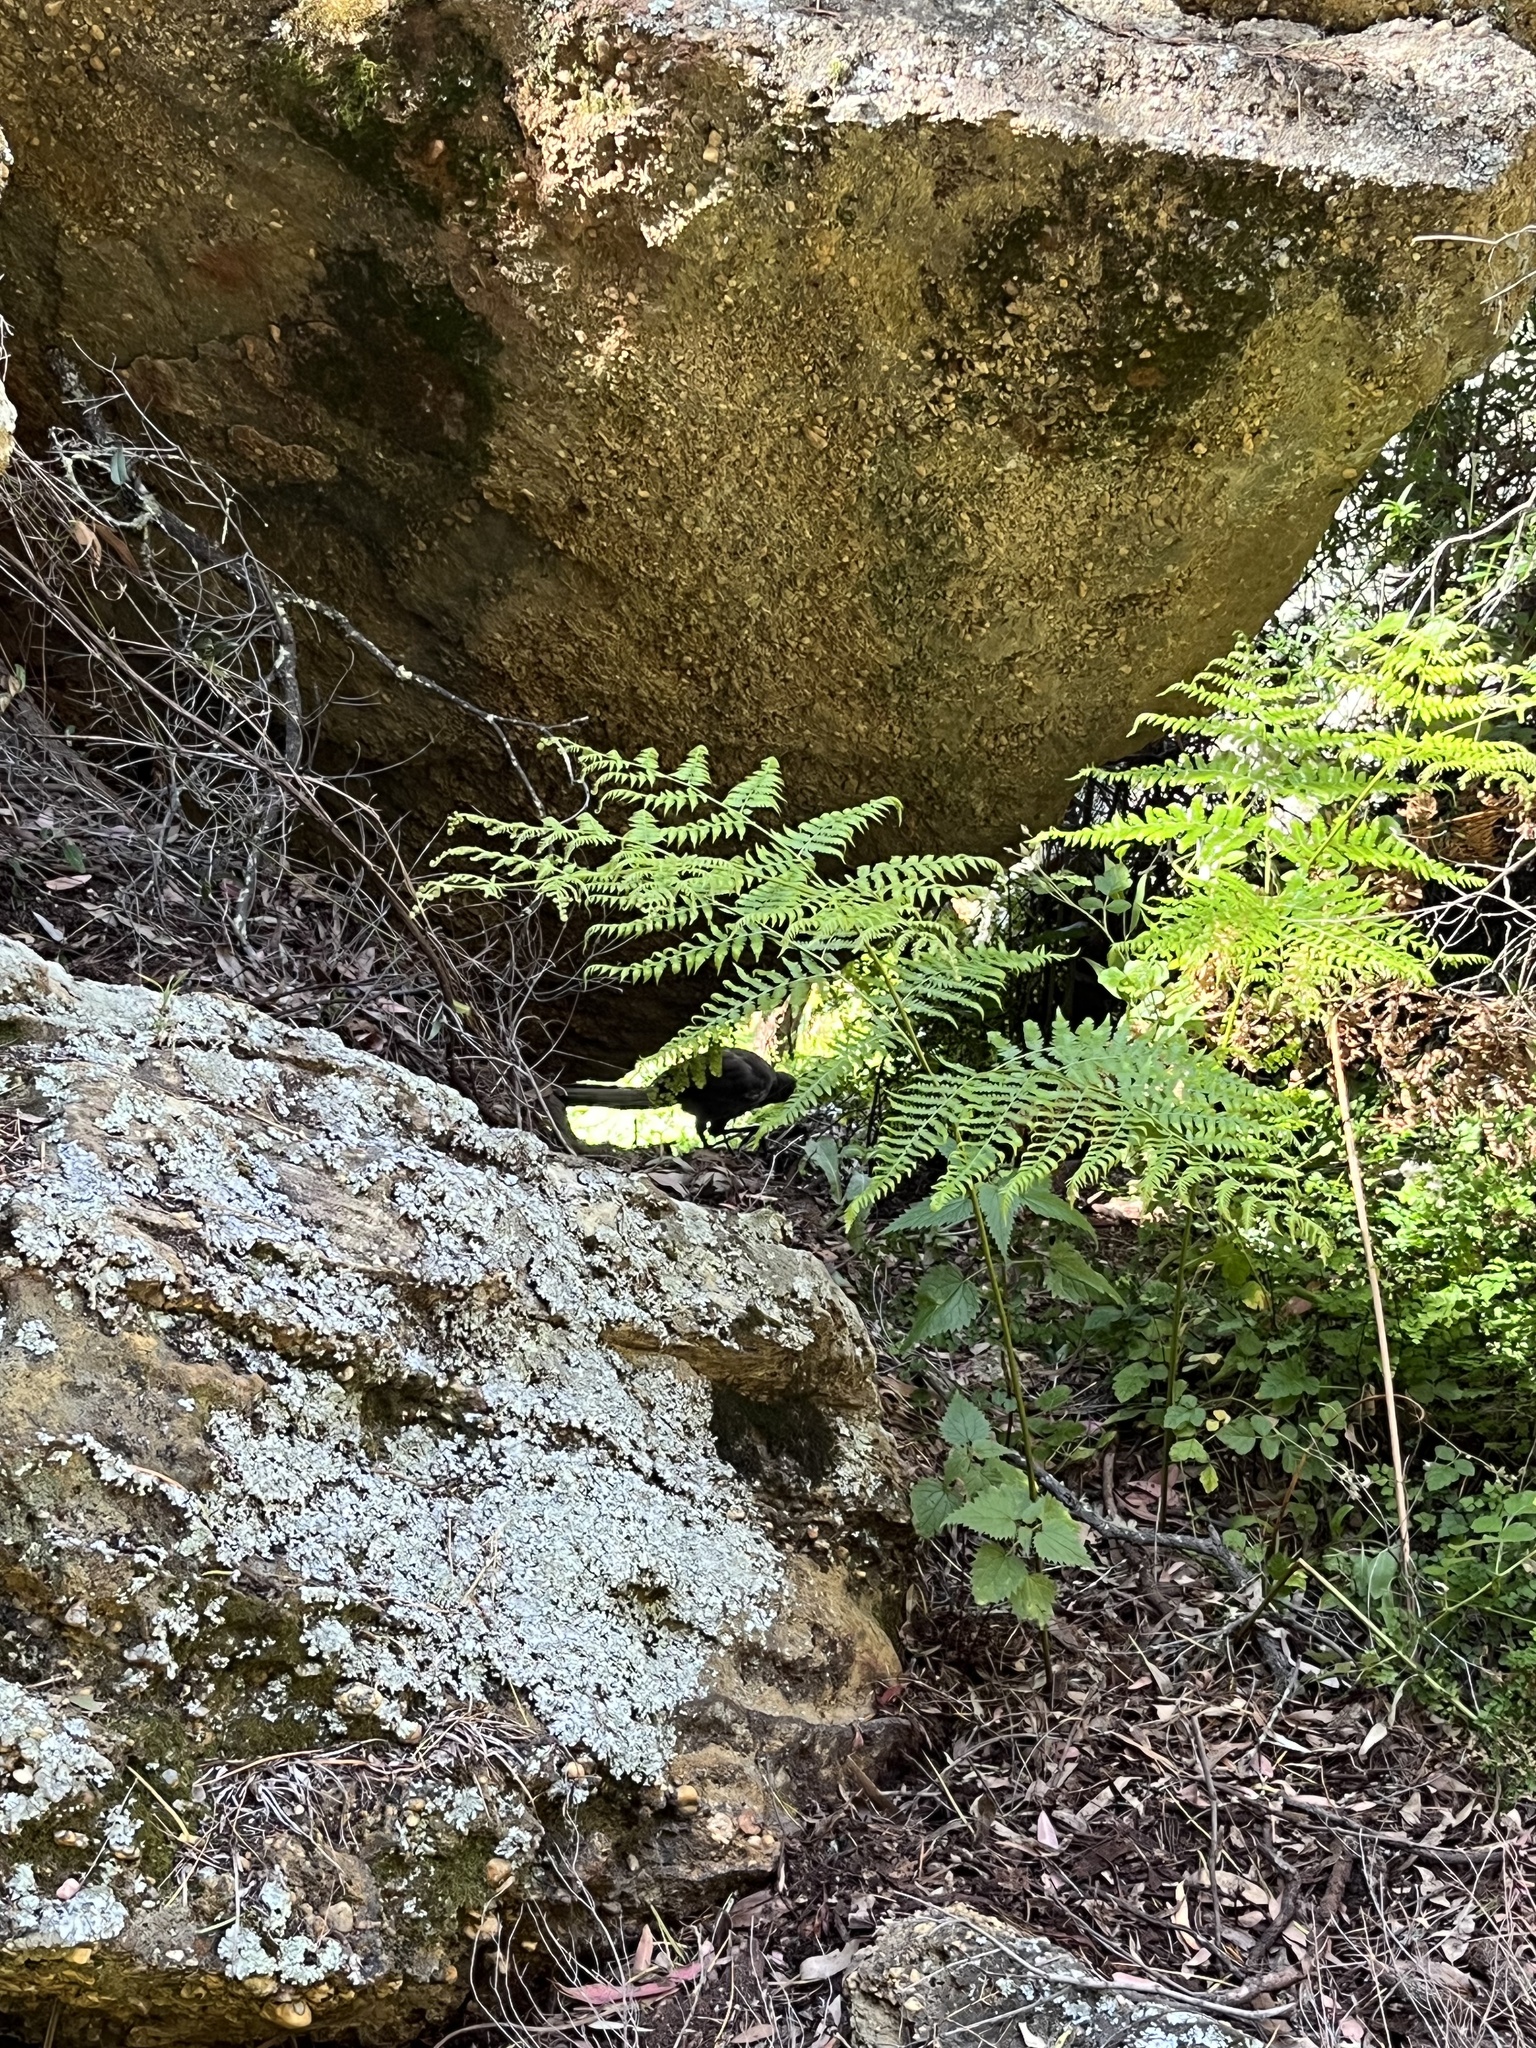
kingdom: Animalia
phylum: Chordata
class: Aves
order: Passeriformes
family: Menuridae
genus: Menura
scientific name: Menura novaehollandiae
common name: Superb lyrebird
